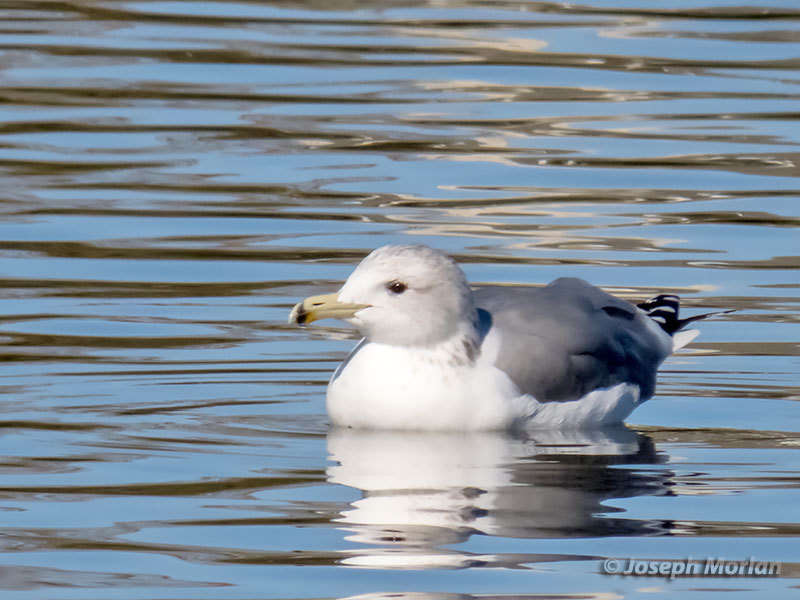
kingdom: Animalia
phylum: Chordata
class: Aves
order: Charadriiformes
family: Laridae
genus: Larus
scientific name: Larus californicus
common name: California gull
